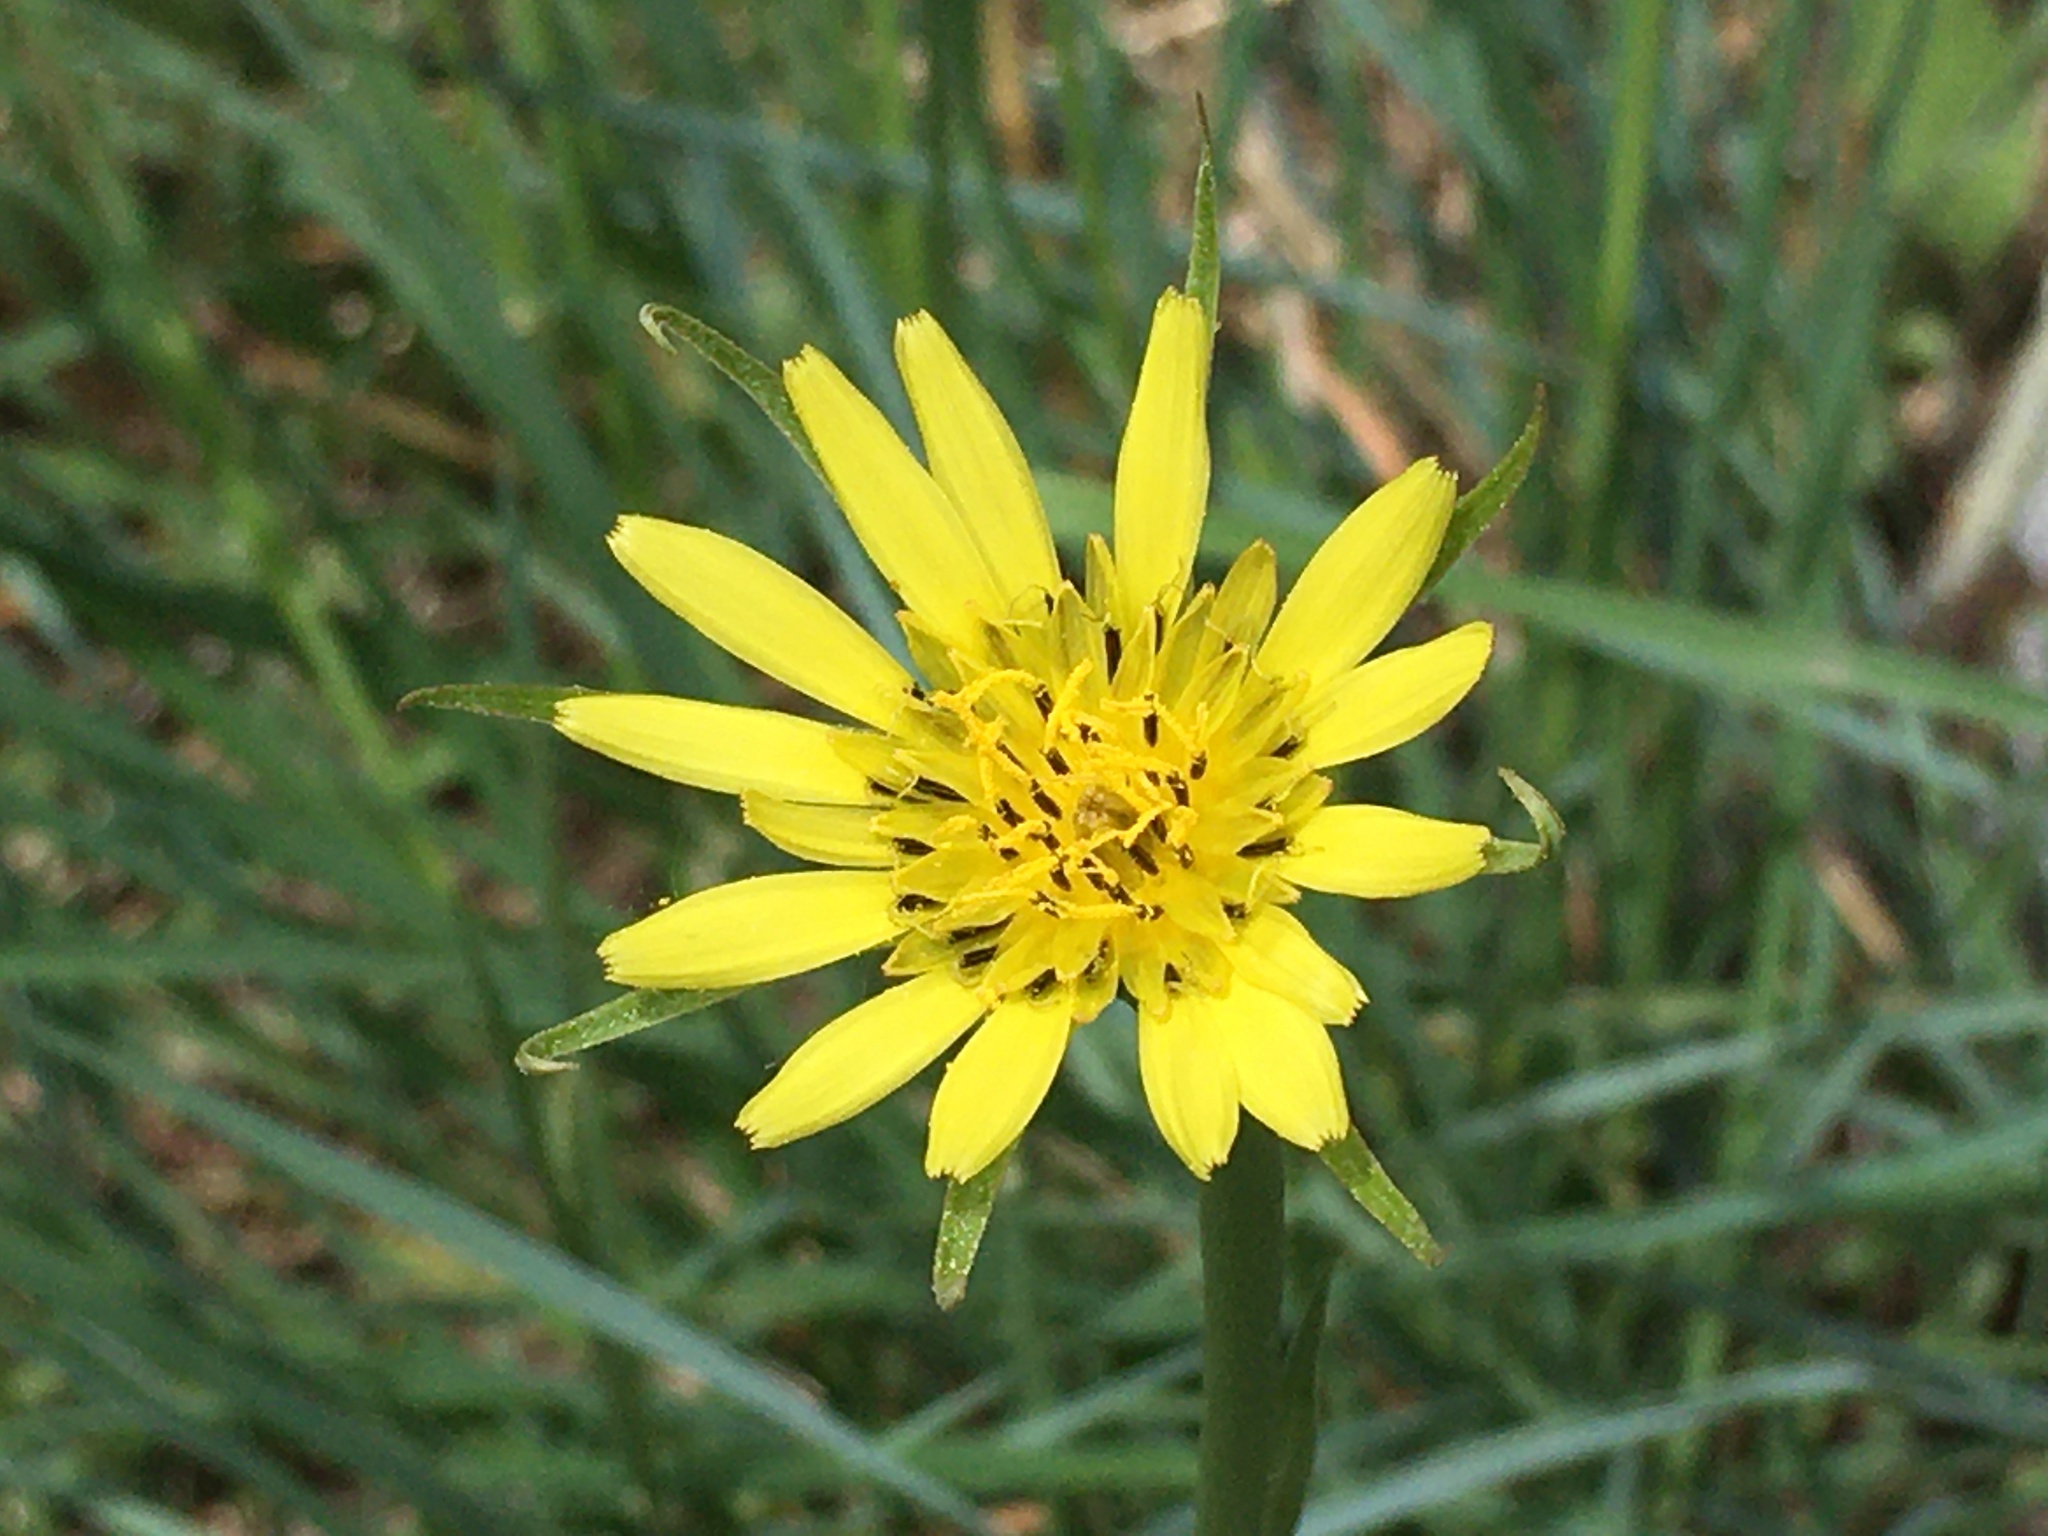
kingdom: Plantae
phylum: Tracheophyta
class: Magnoliopsida
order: Asterales
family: Asteraceae
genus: Tragopogon
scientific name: Tragopogon dubius
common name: Yellow salsify
